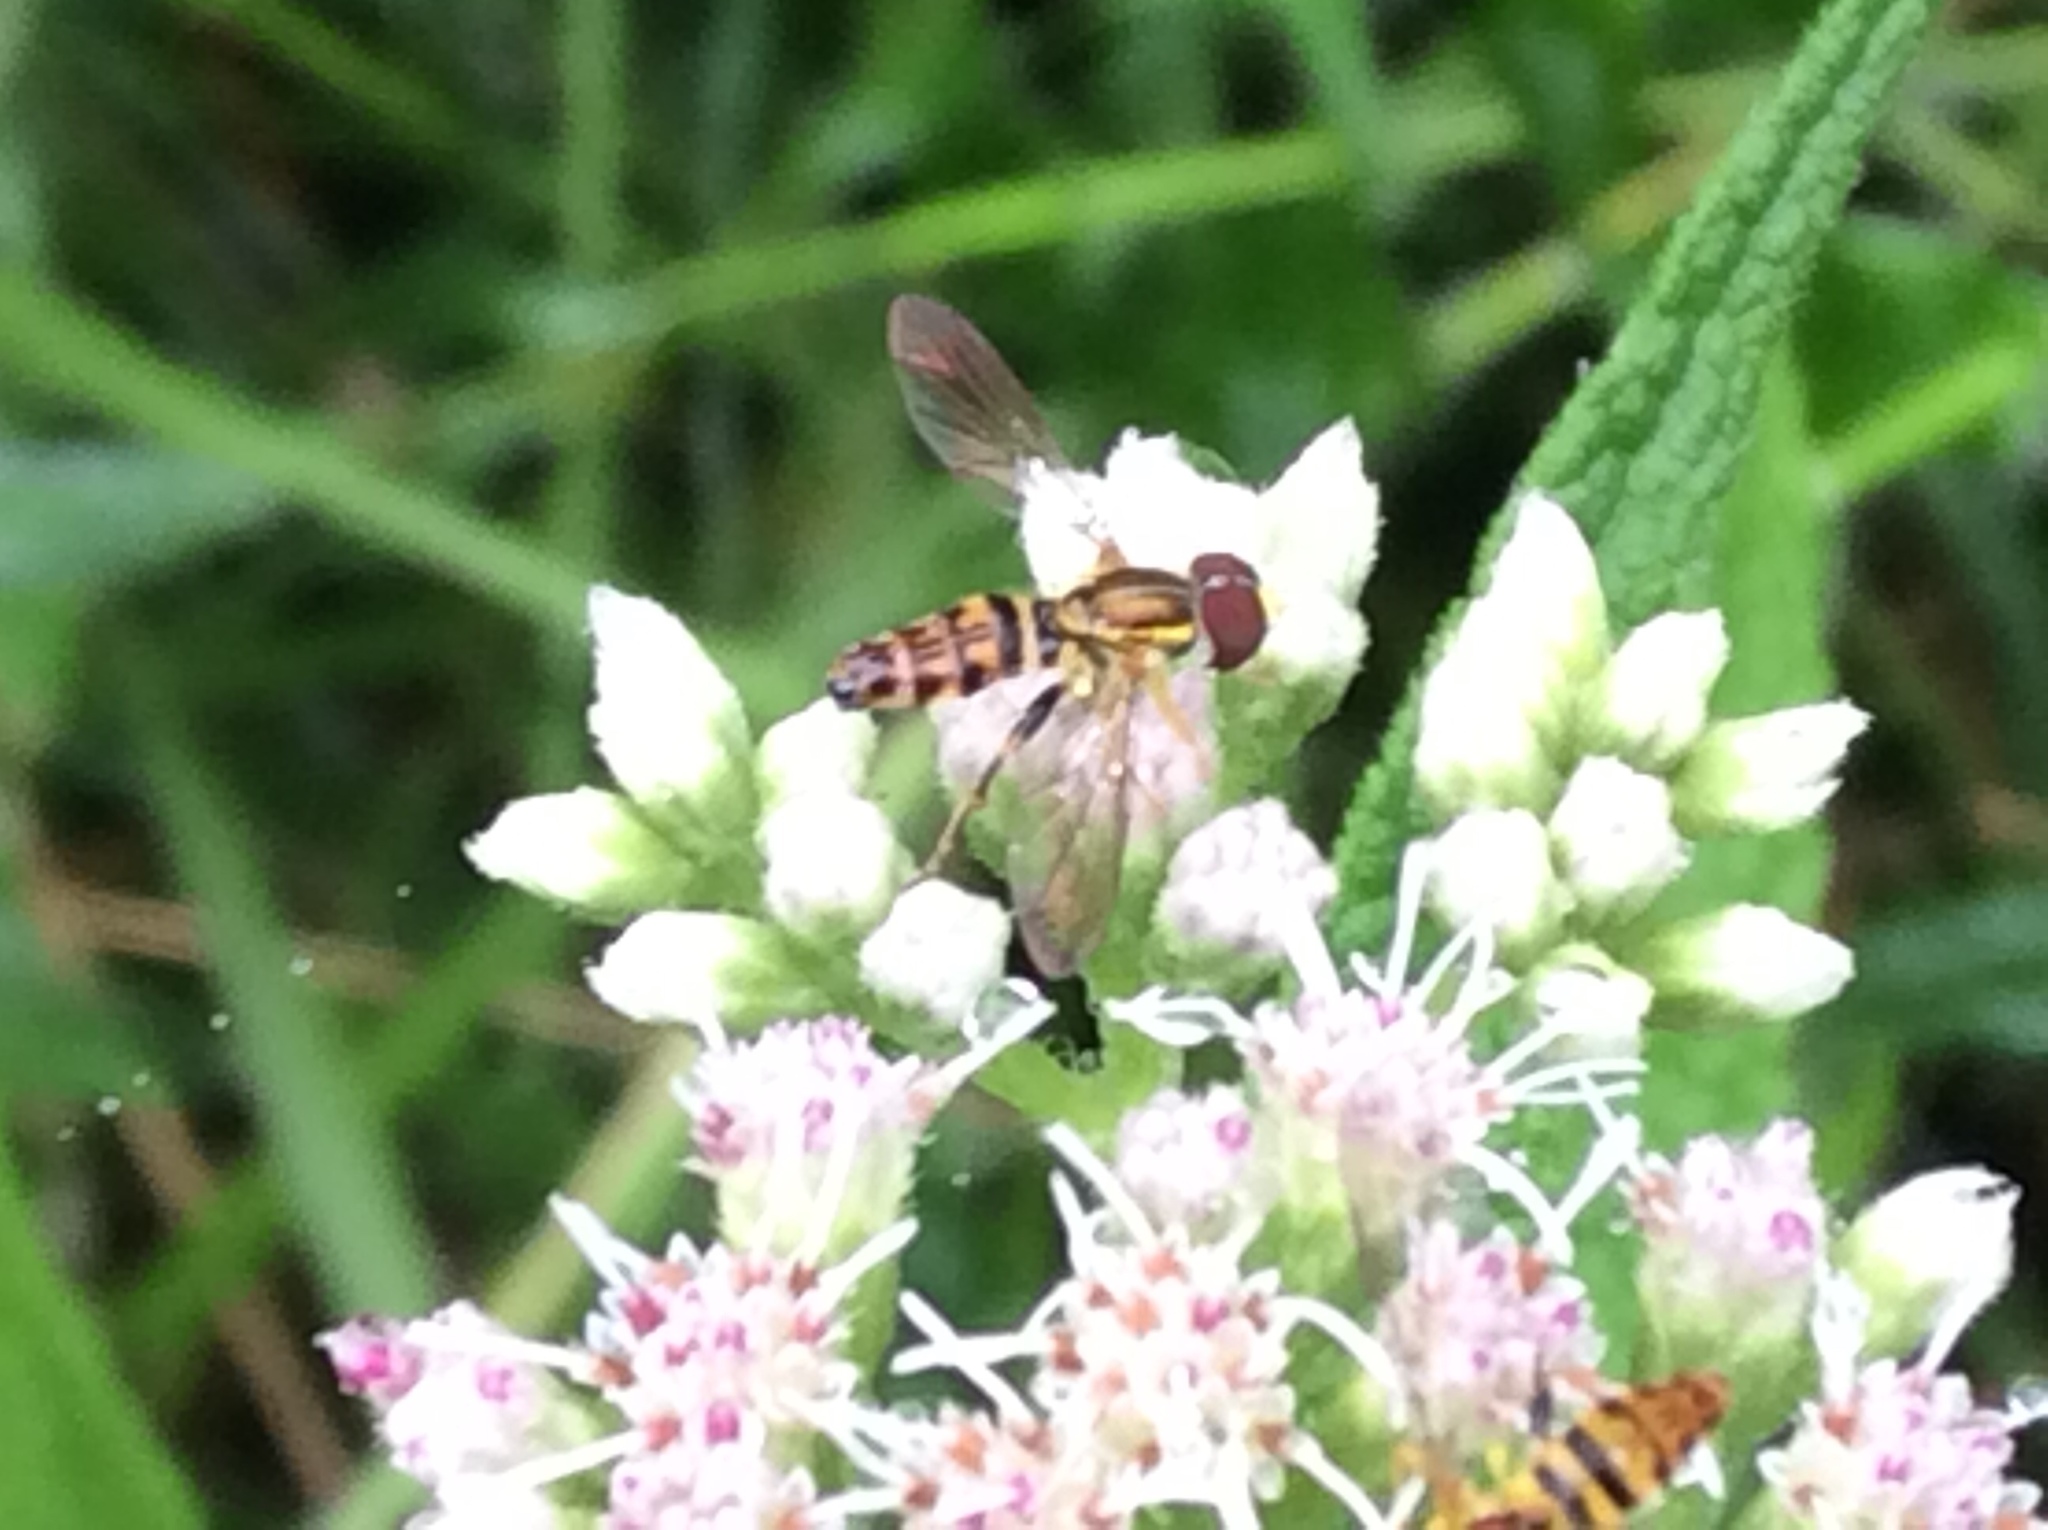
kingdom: Animalia
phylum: Arthropoda
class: Insecta
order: Diptera
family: Syrphidae
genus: Toxomerus
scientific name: Toxomerus geminatus
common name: Eastern calligrapher
